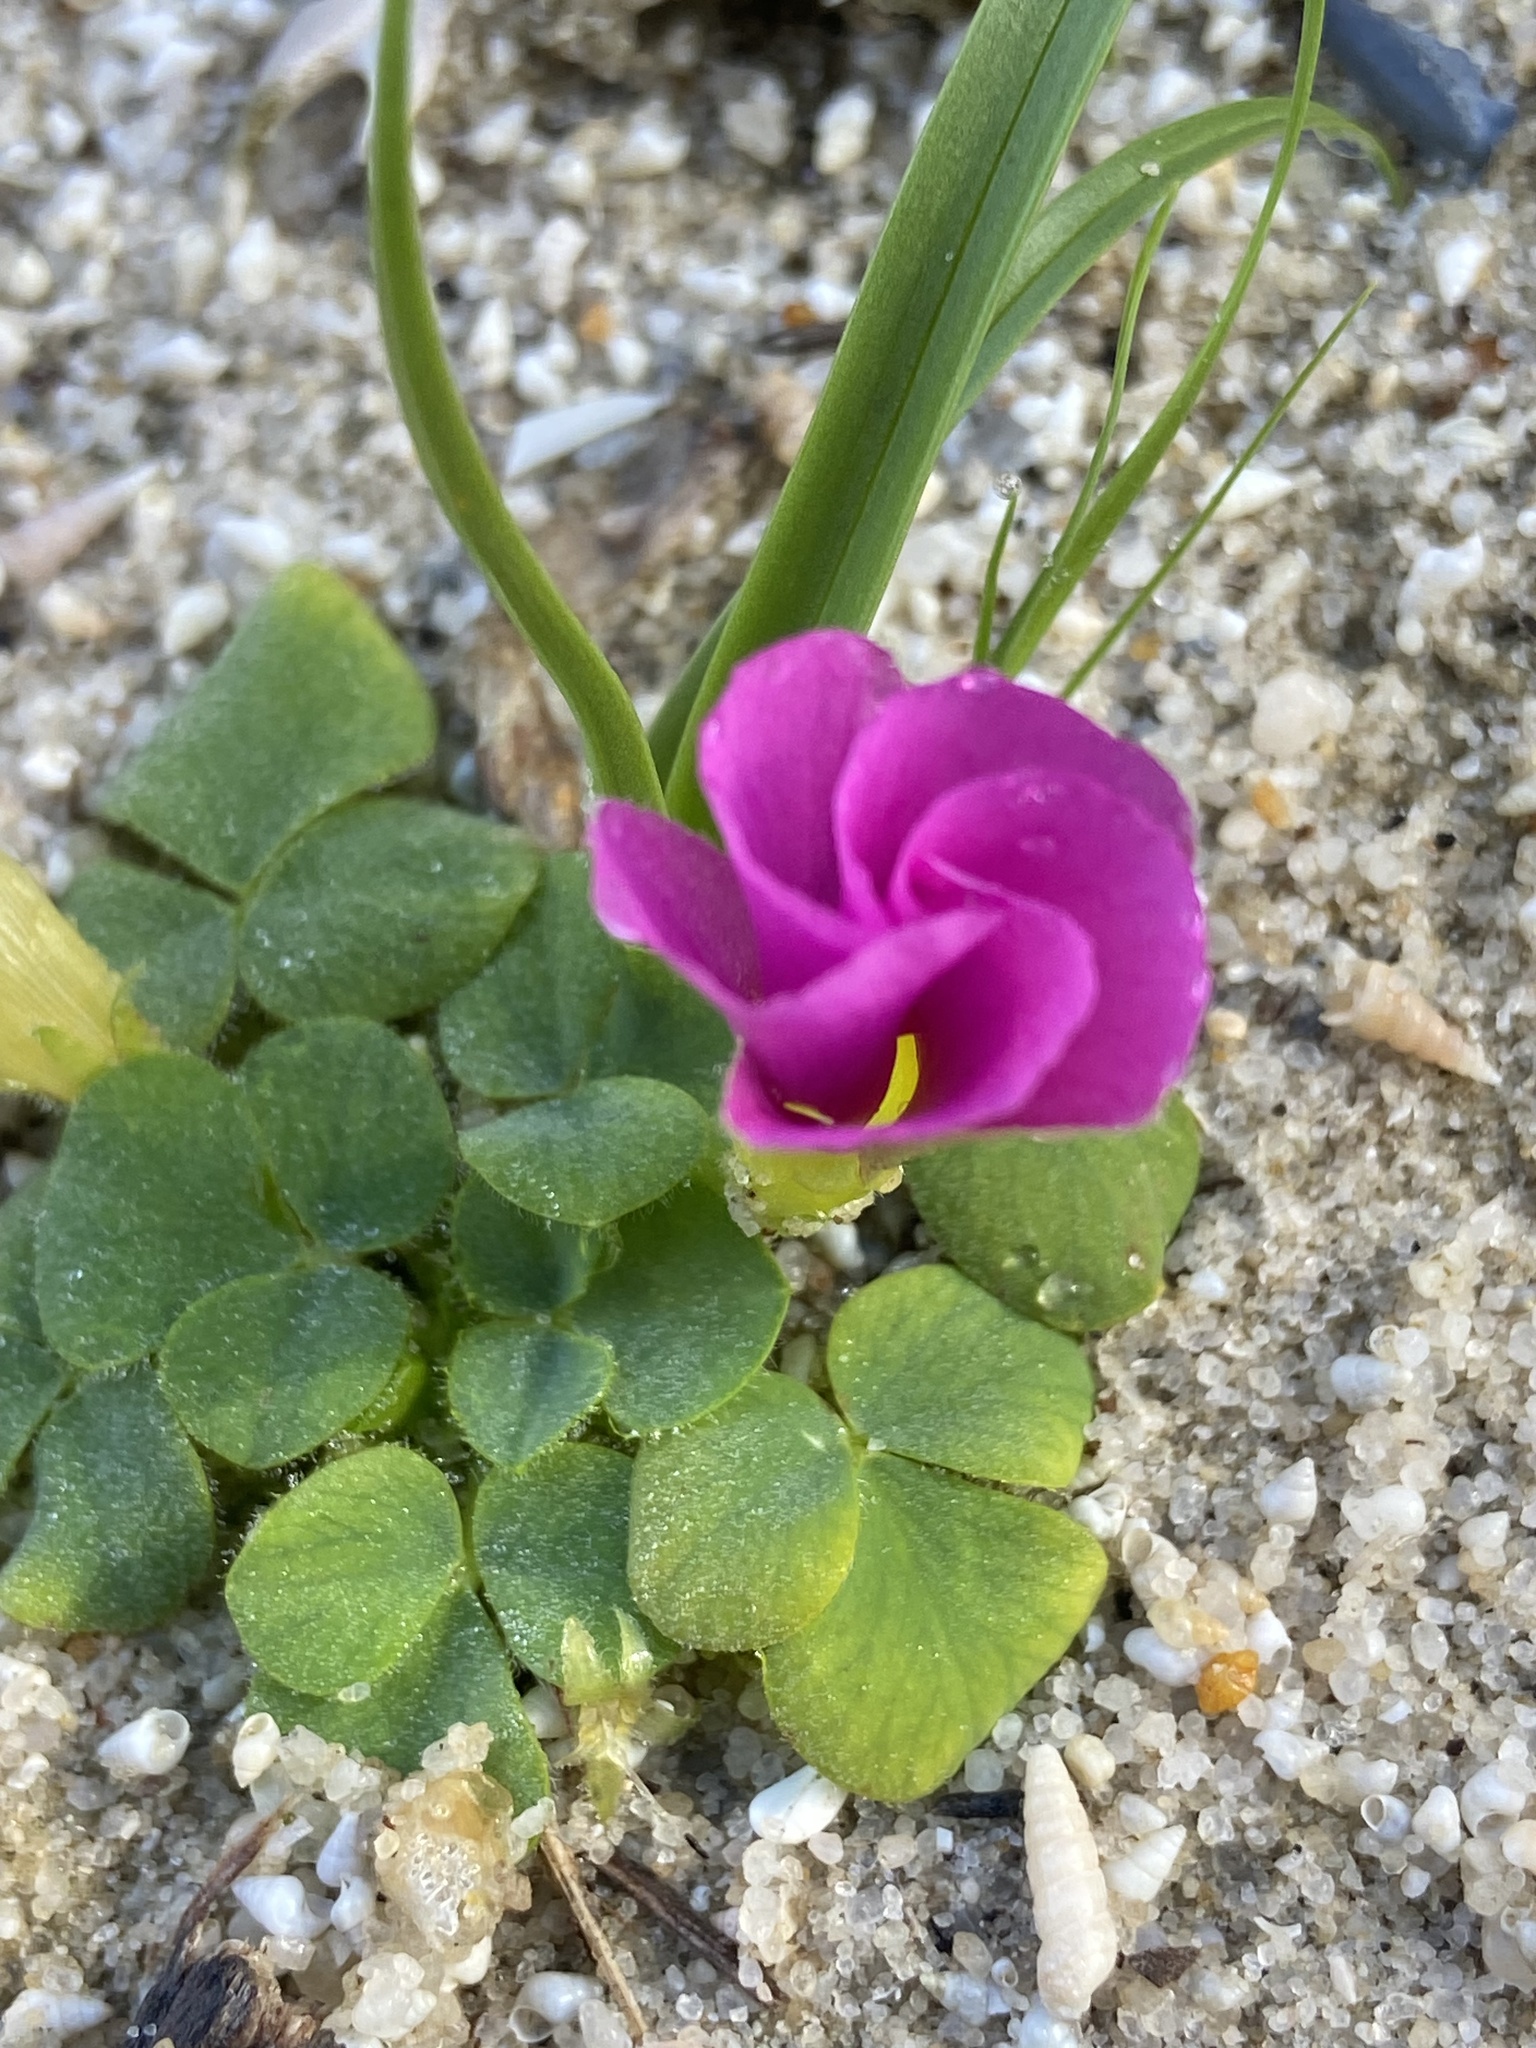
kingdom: Plantae
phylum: Tracheophyta
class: Magnoliopsida
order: Oxalidales
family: Oxalidaceae
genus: Oxalis
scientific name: Oxalis purpurea
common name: Purple woodsorrel
